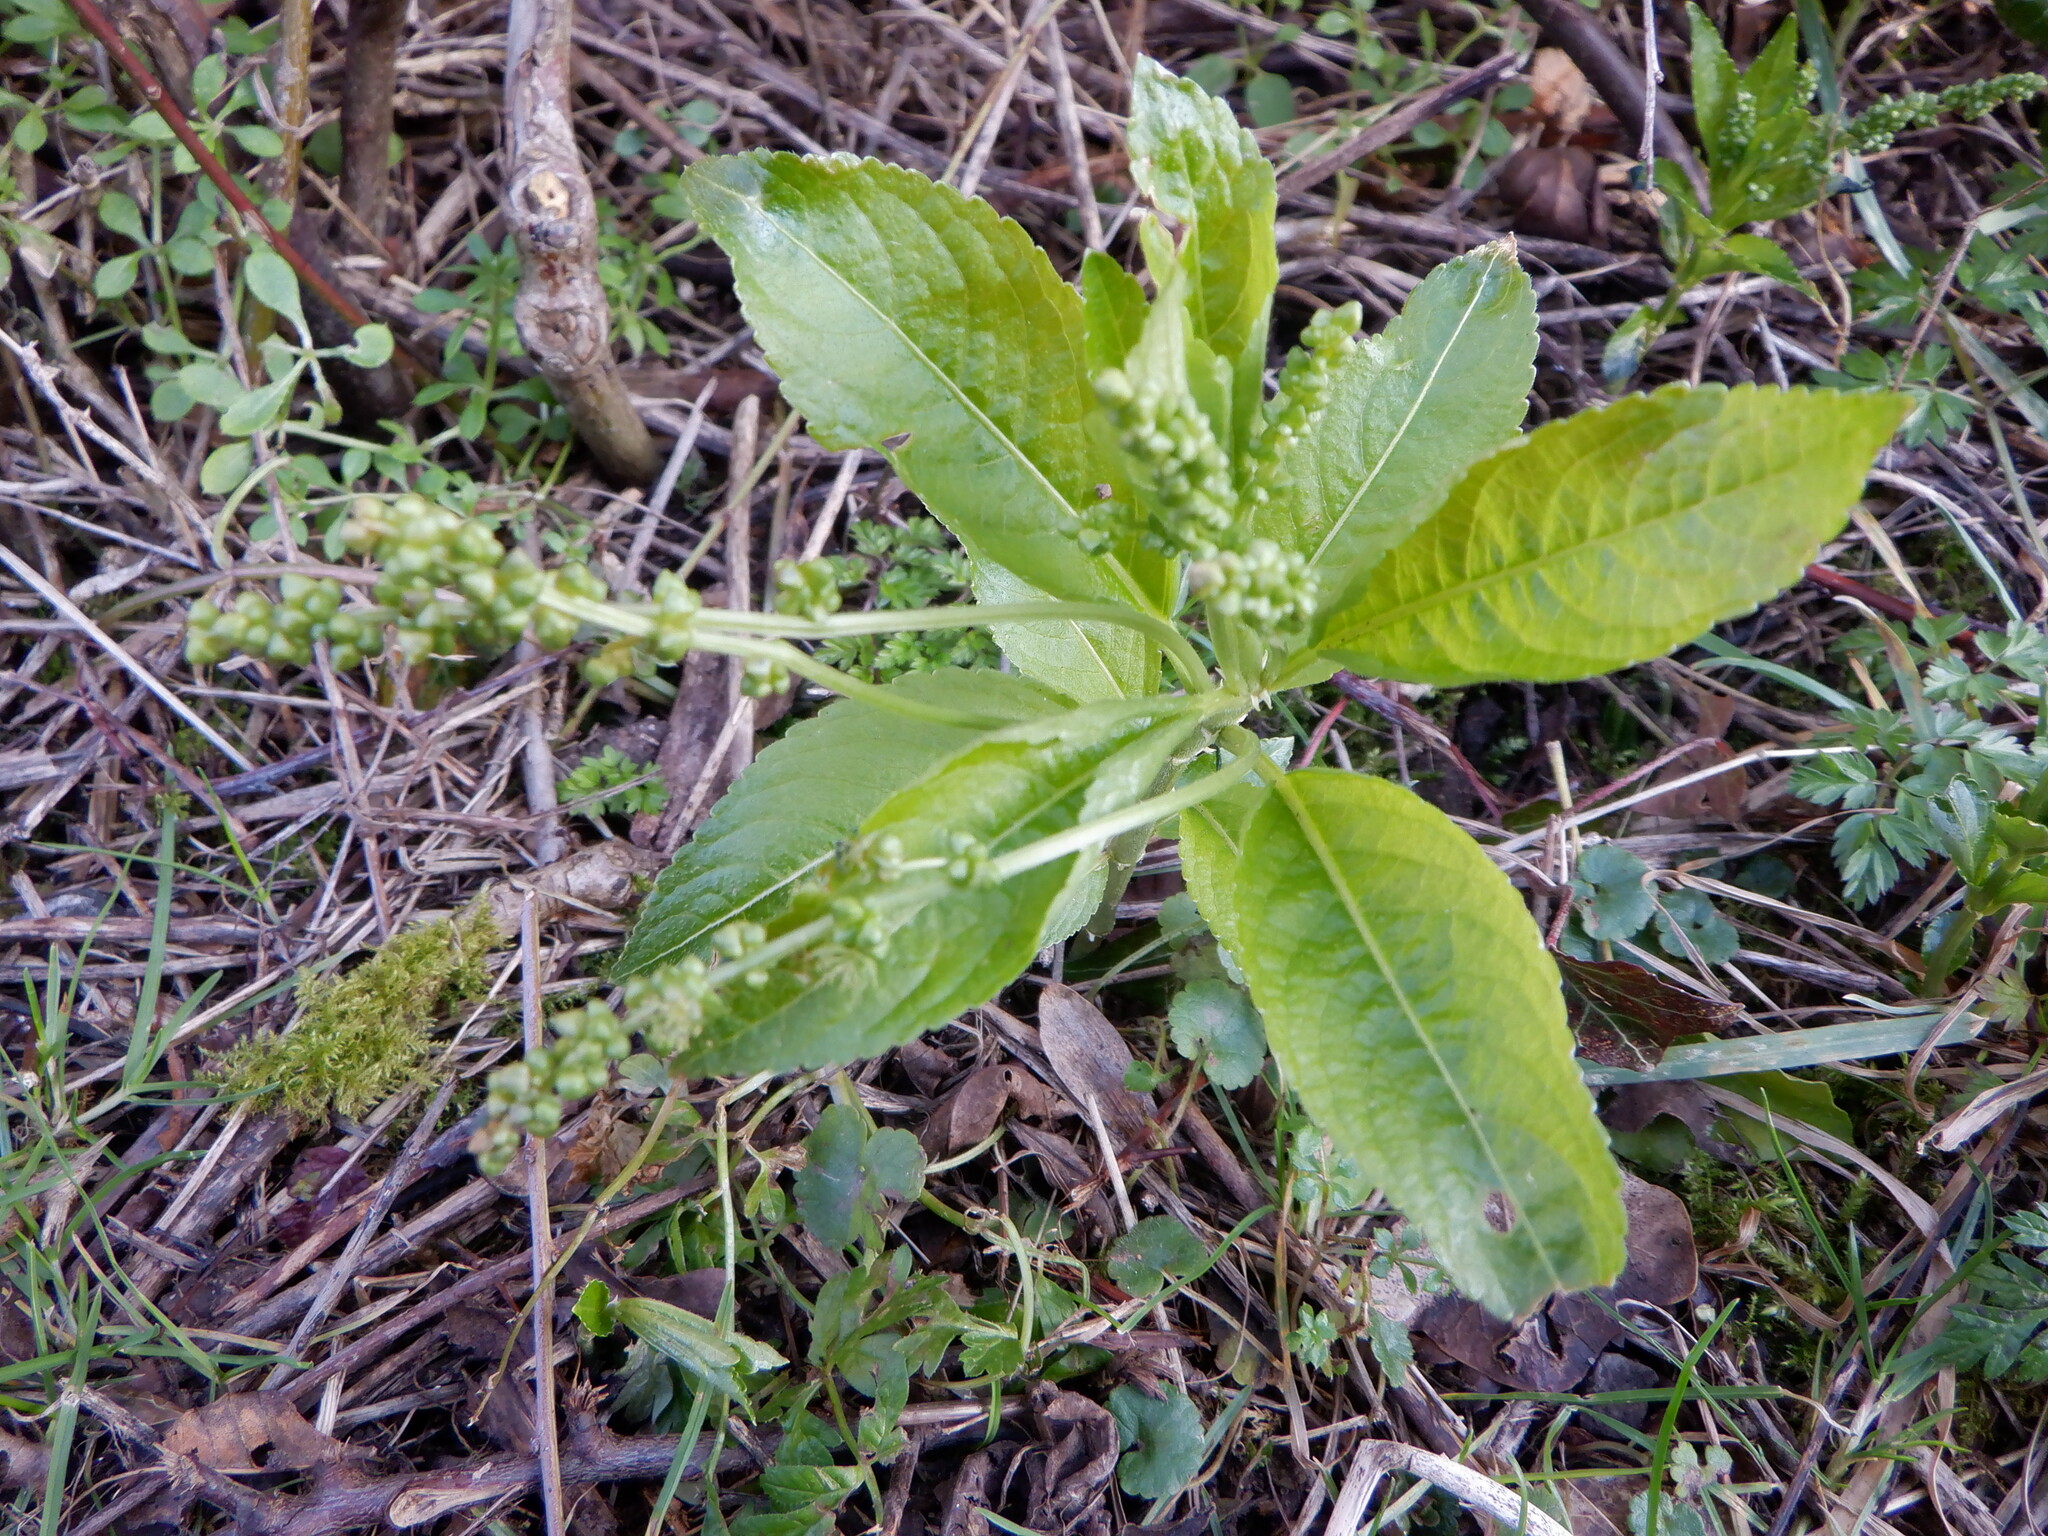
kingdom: Plantae
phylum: Tracheophyta
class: Magnoliopsida
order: Malpighiales
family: Euphorbiaceae
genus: Mercurialis
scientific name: Mercurialis perennis
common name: Dog mercury
